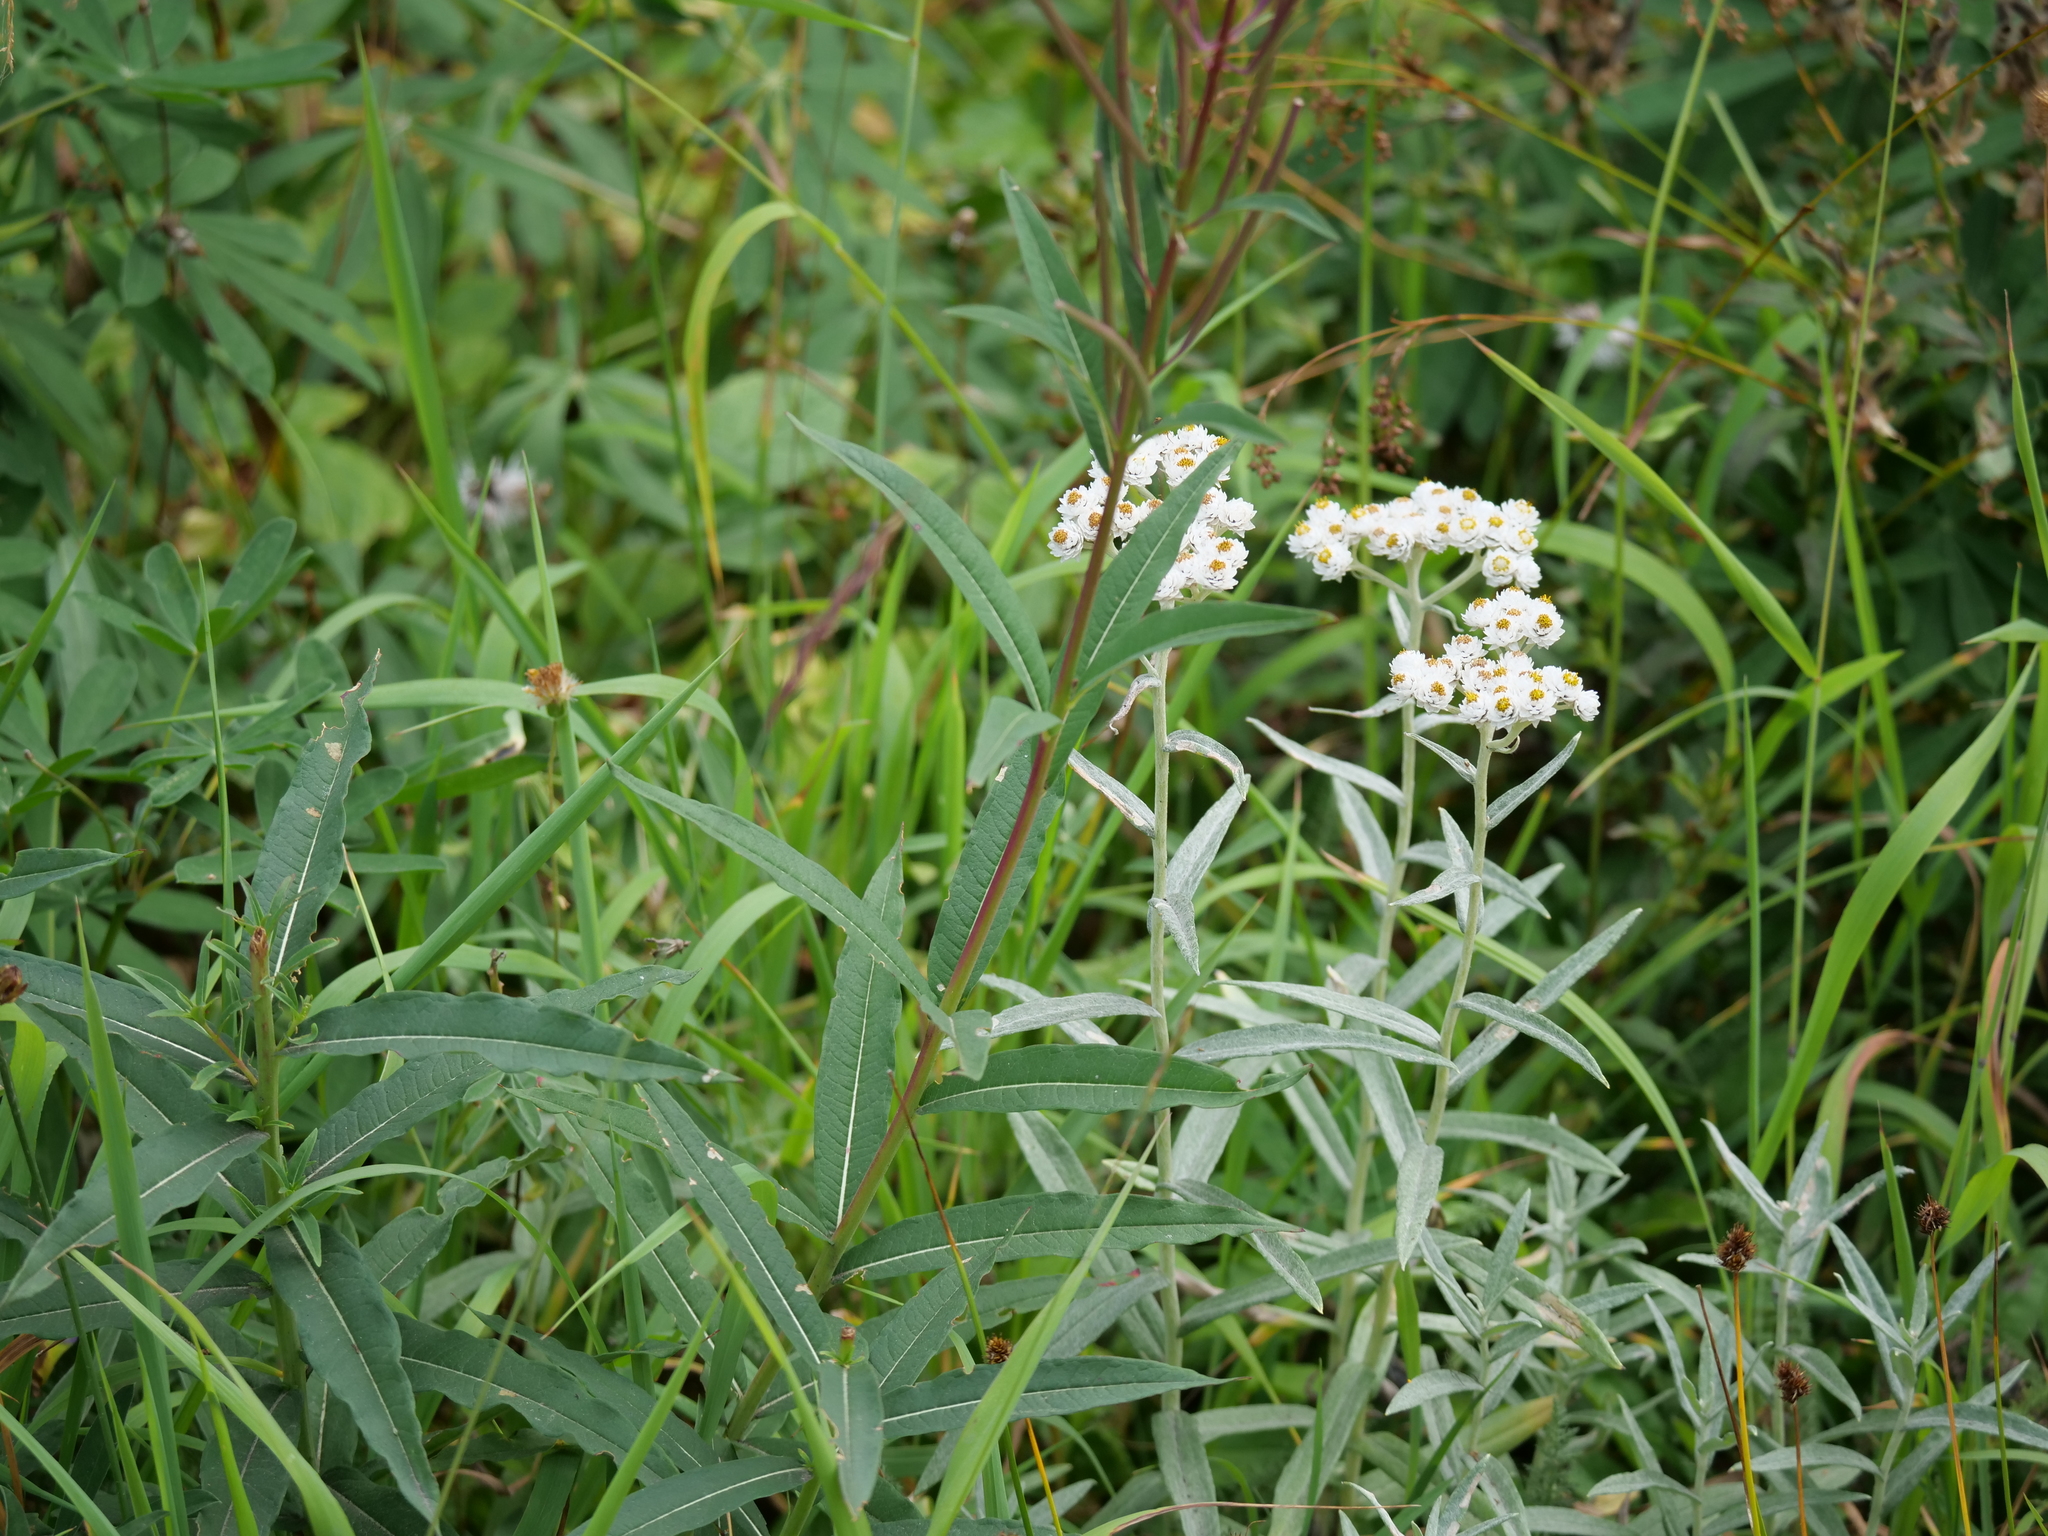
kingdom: Plantae
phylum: Tracheophyta
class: Magnoliopsida
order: Myrtales
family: Onagraceae
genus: Chamaenerion
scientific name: Chamaenerion angustifolium
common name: Fireweed
